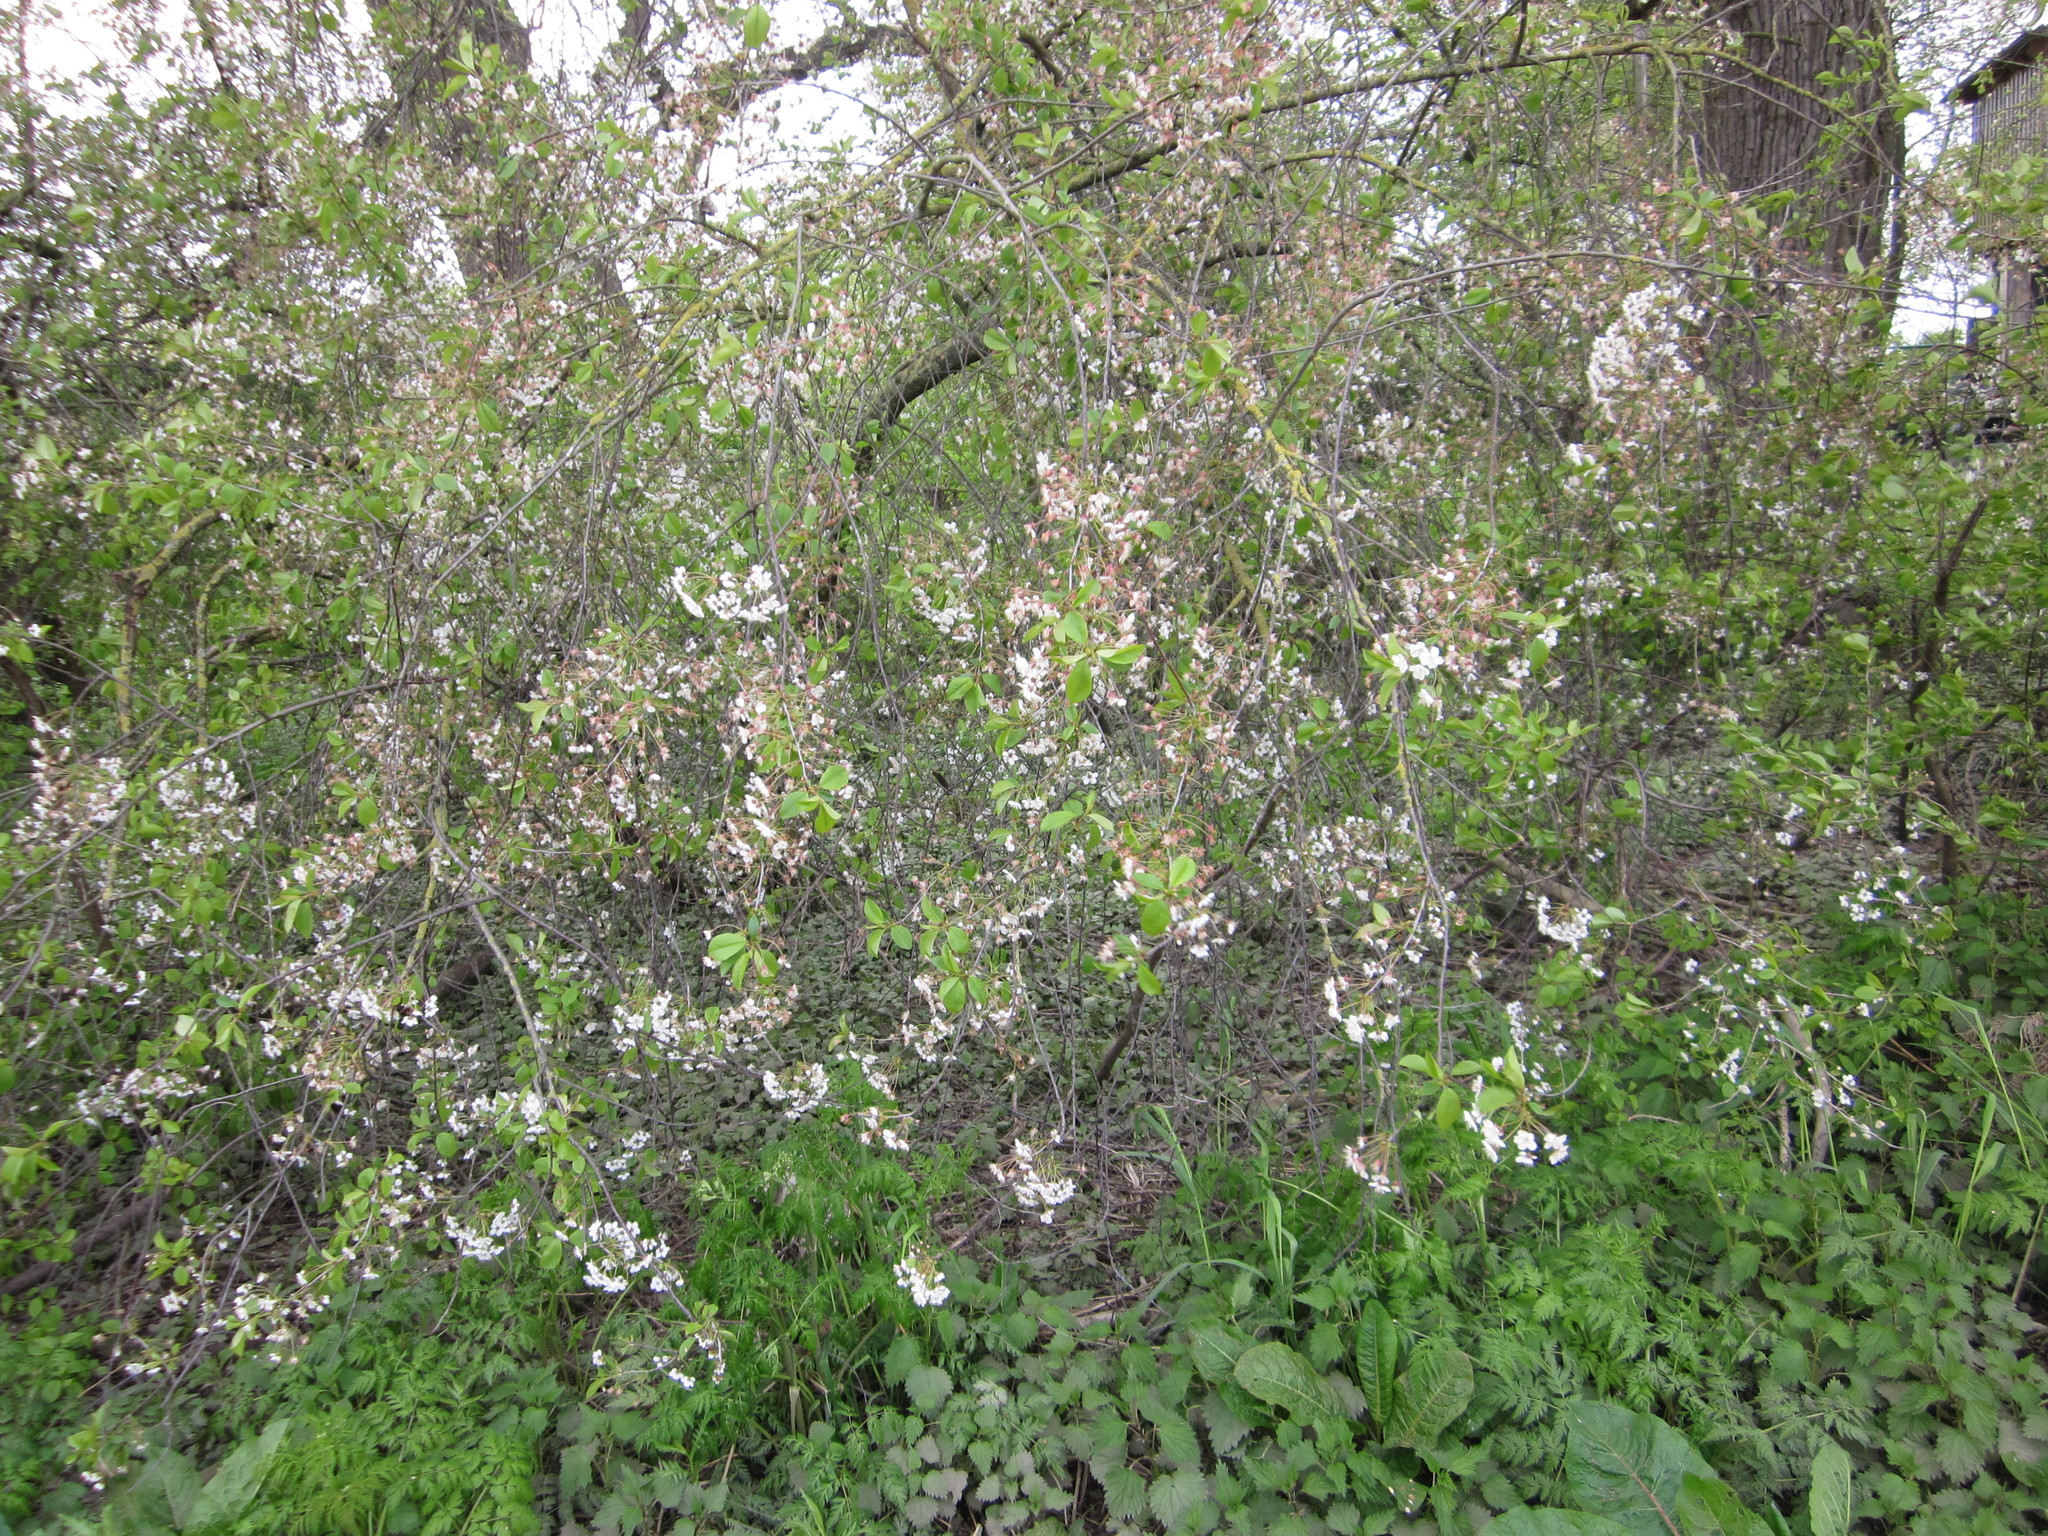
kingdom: Plantae
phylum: Tracheophyta
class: Magnoliopsida
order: Rosales
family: Rosaceae
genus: Prunus
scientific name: Prunus cerasus
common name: Morello cherry
